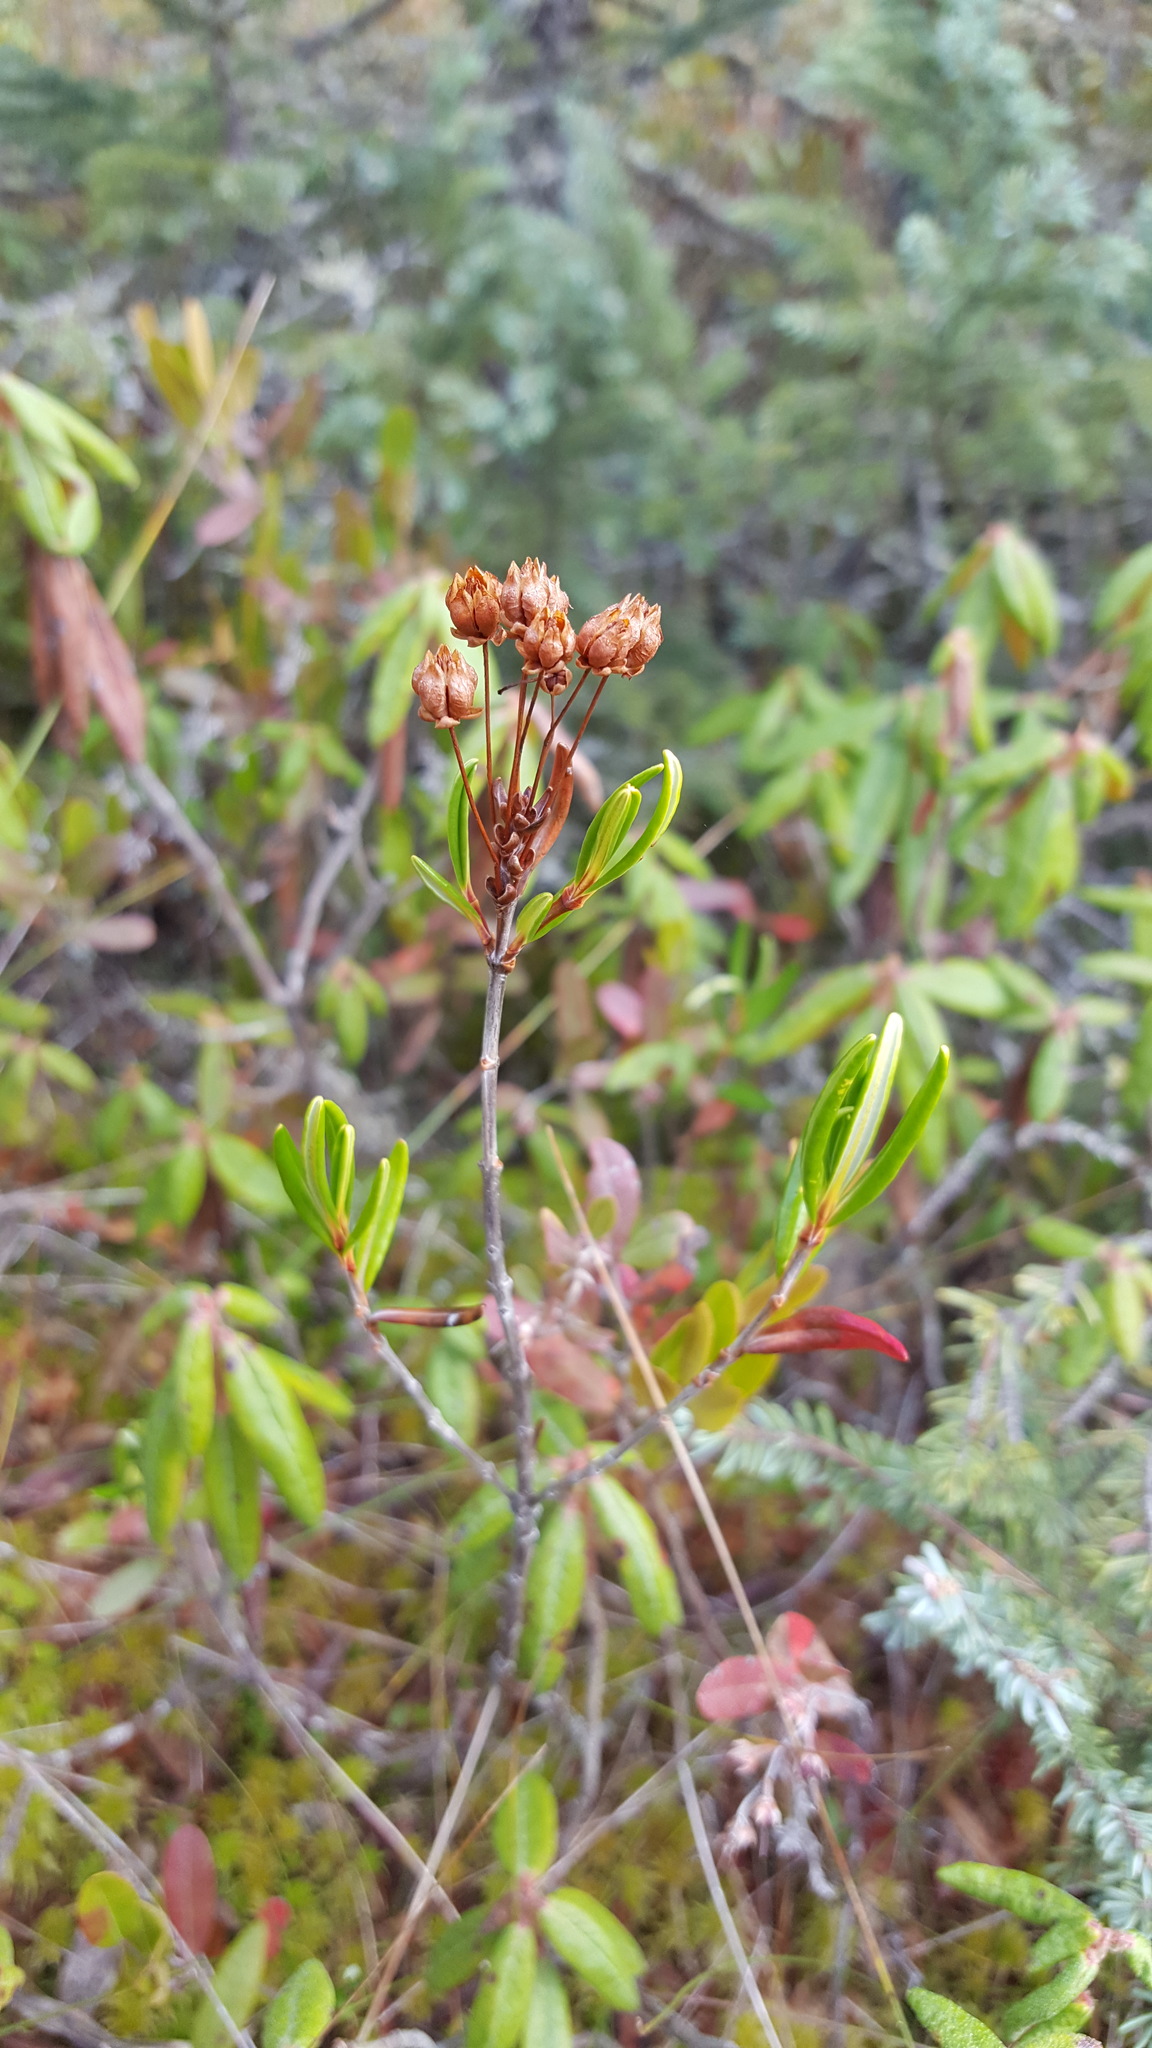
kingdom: Plantae
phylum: Tracheophyta
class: Magnoliopsida
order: Ericales
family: Ericaceae
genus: Kalmia
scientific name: Kalmia polifolia
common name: Bog-laurel
